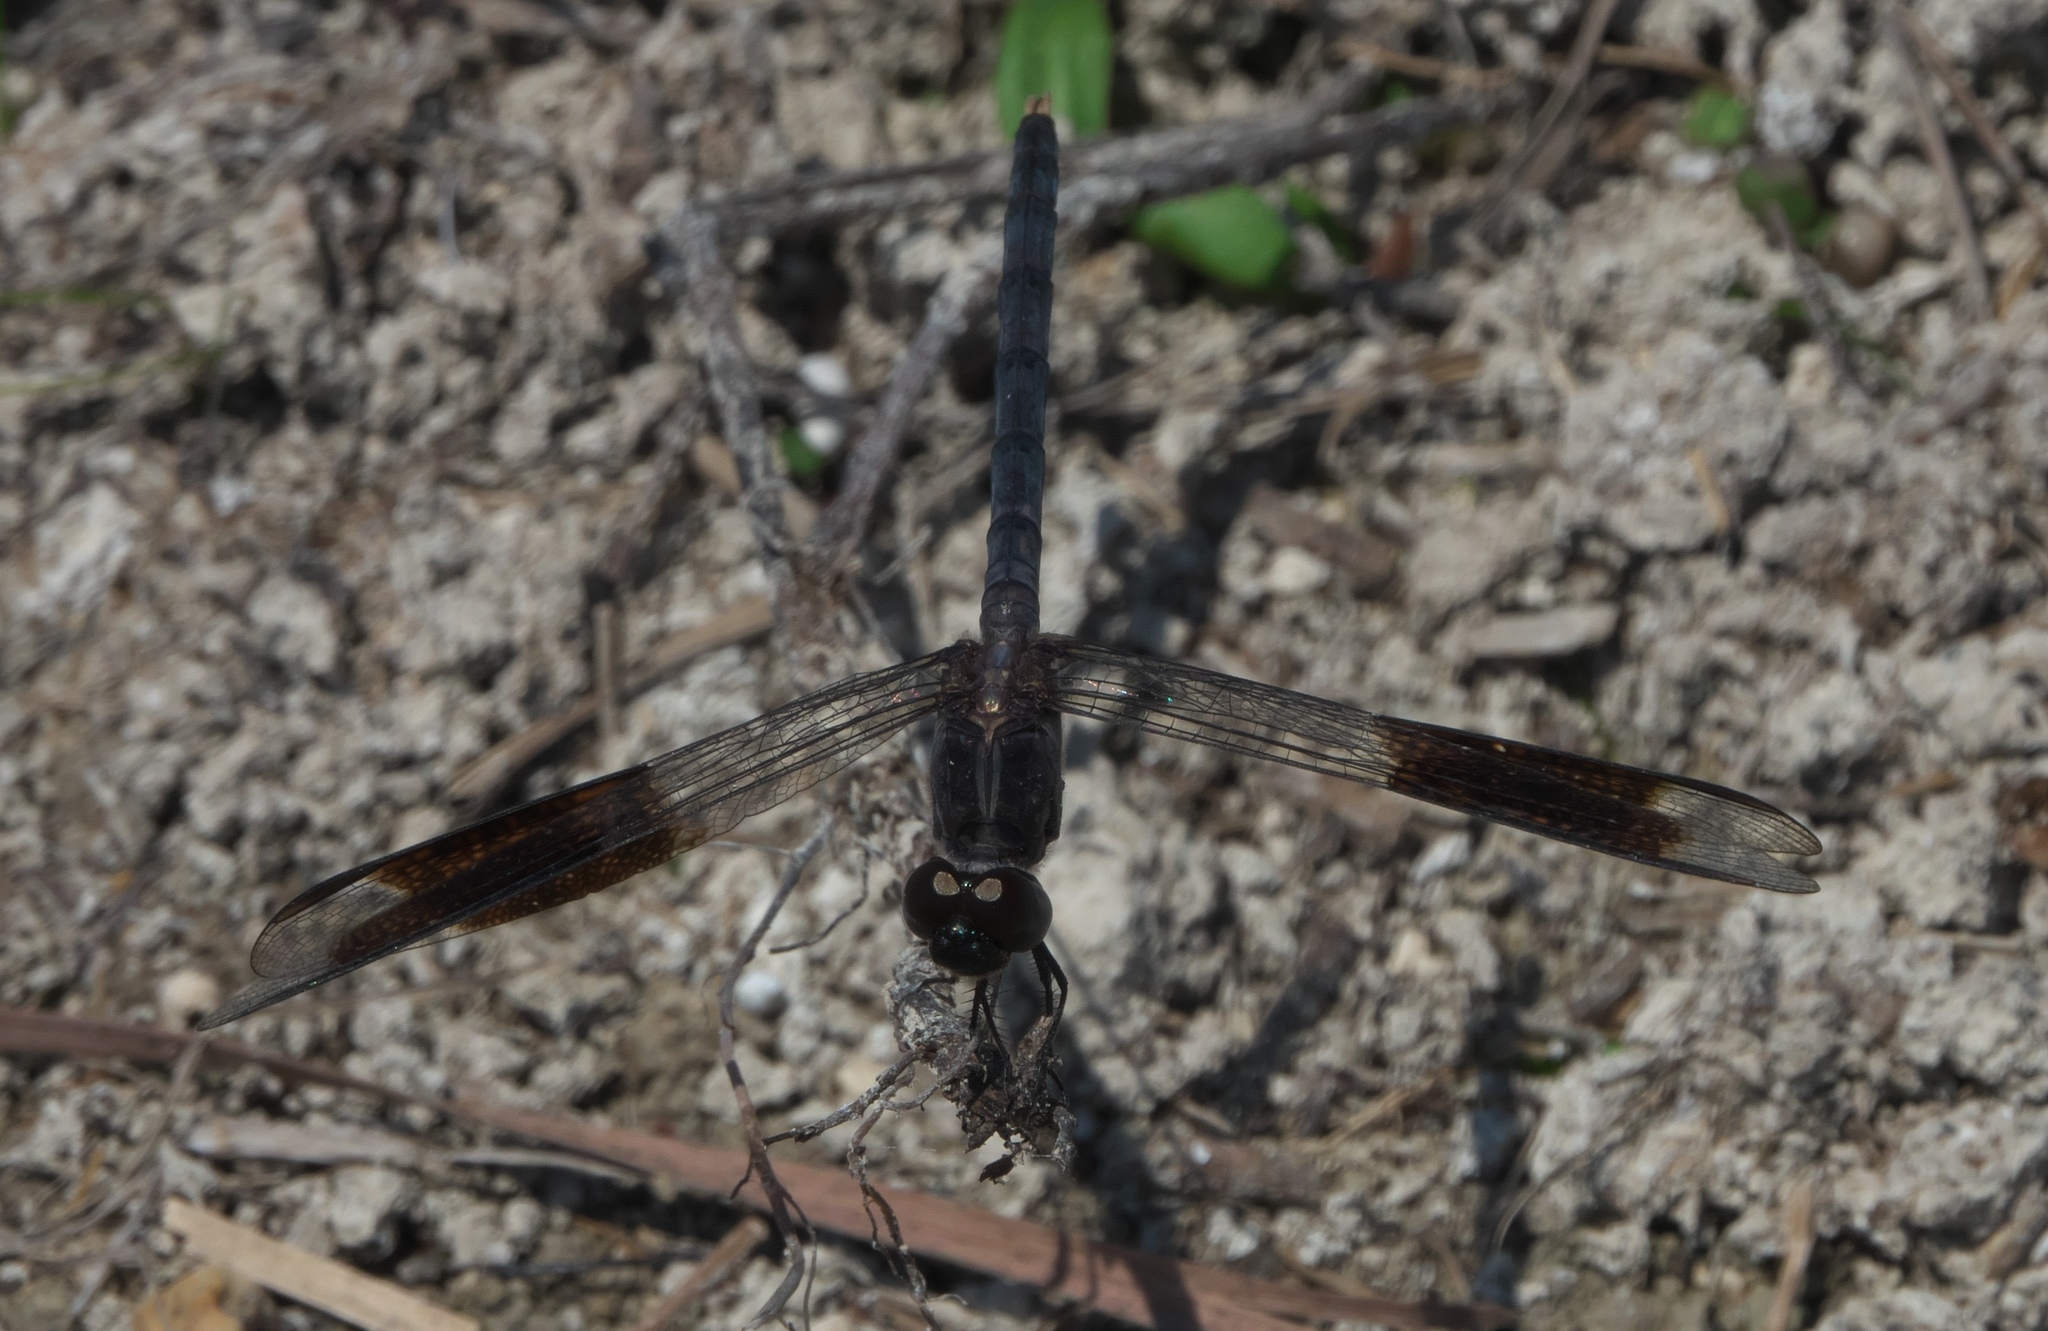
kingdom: Animalia
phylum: Arthropoda
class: Insecta
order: Odonata
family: Libellulidae
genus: Erythrodiplax
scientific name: Erythrodiplax umbrata
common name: Band-winged dragonlet
